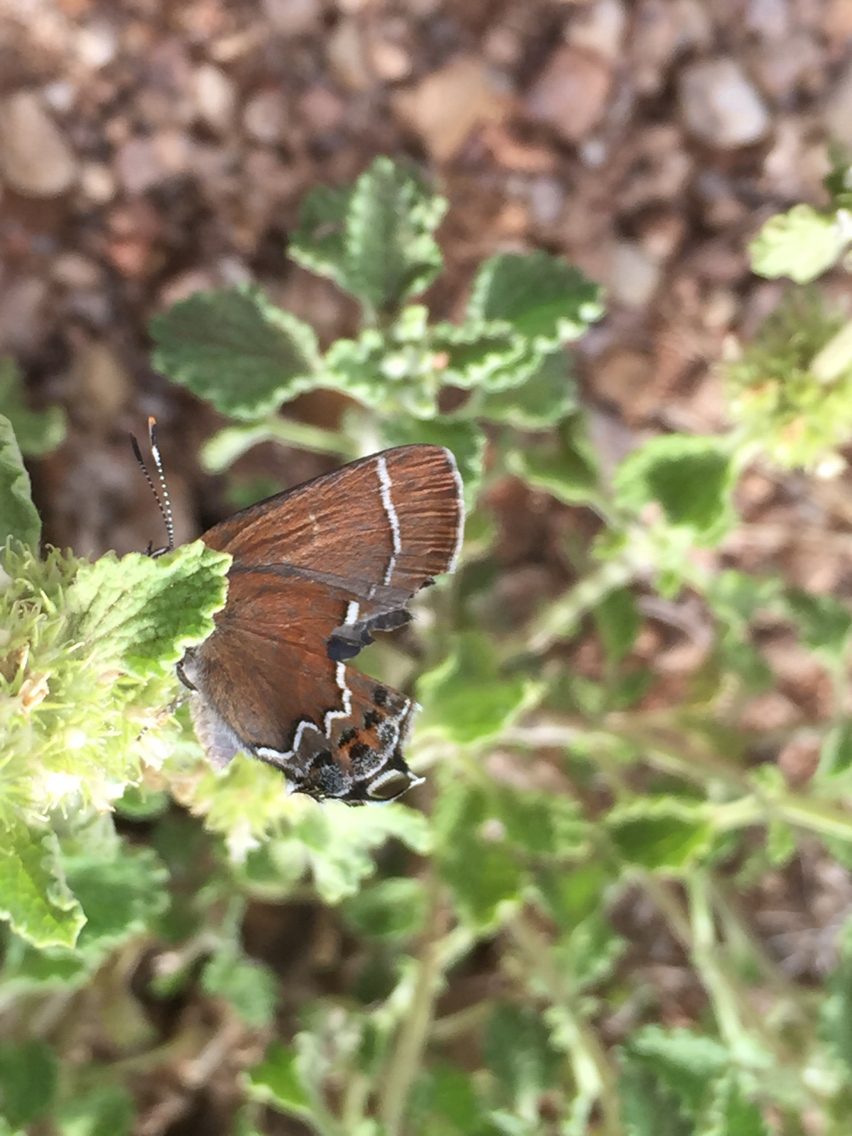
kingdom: Animalia
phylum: Arthropoda
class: Insecta
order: Lepidoptera
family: Lycaenidae
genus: Mitoura
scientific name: Mitoura spinetorum
